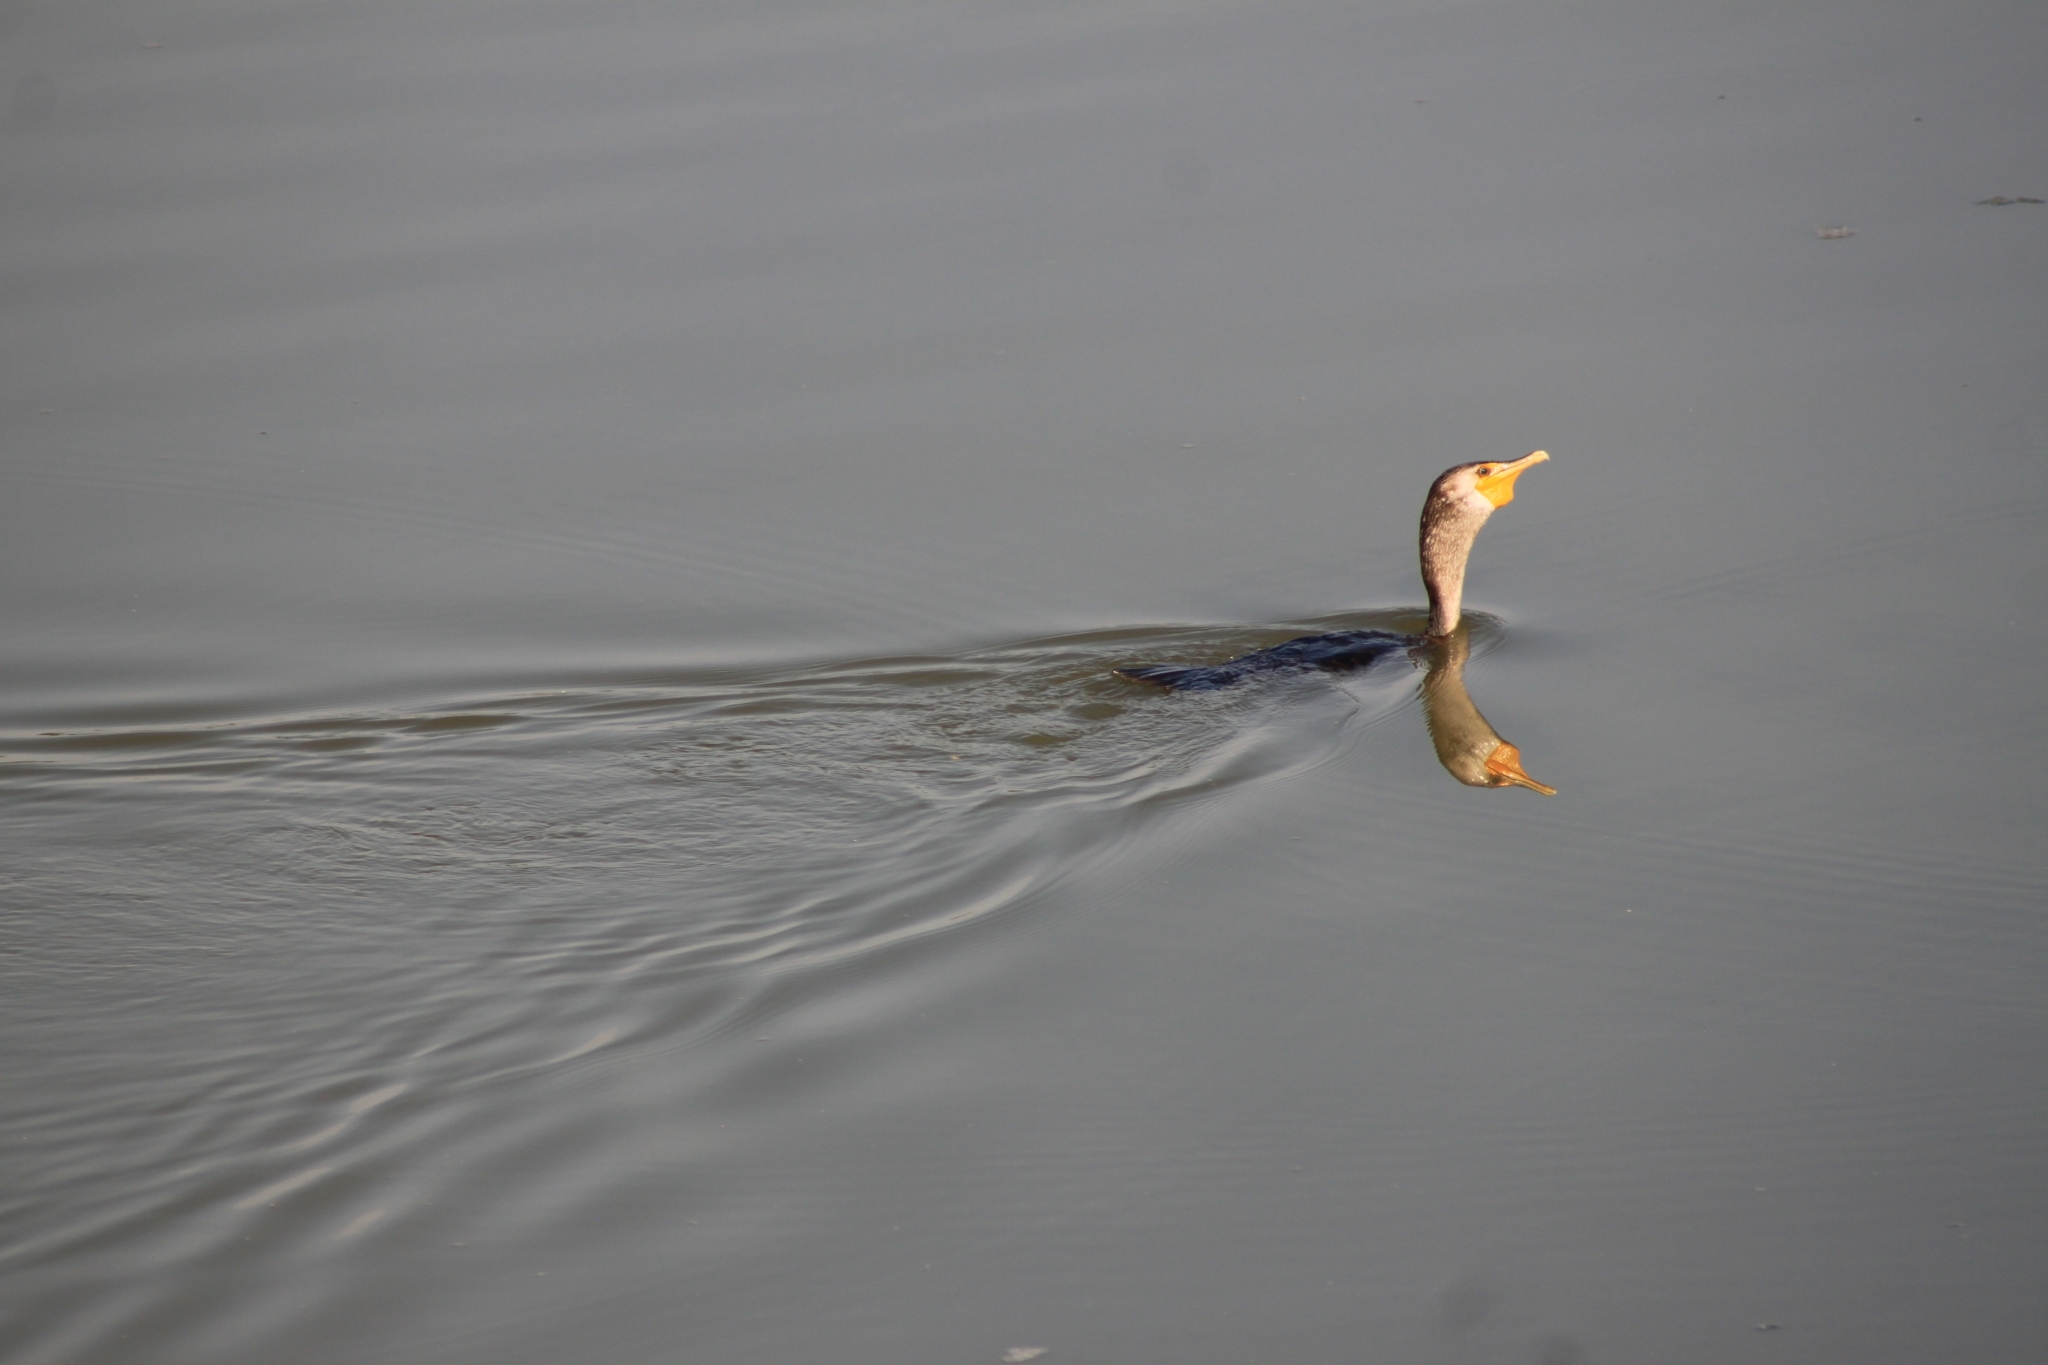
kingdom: Animalia
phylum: Chordata
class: Aves
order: Suliformes
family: Phalacrocoracidae
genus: Phalacrocorax
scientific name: Phalacrocorax auritus
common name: Double-crested cormorant
